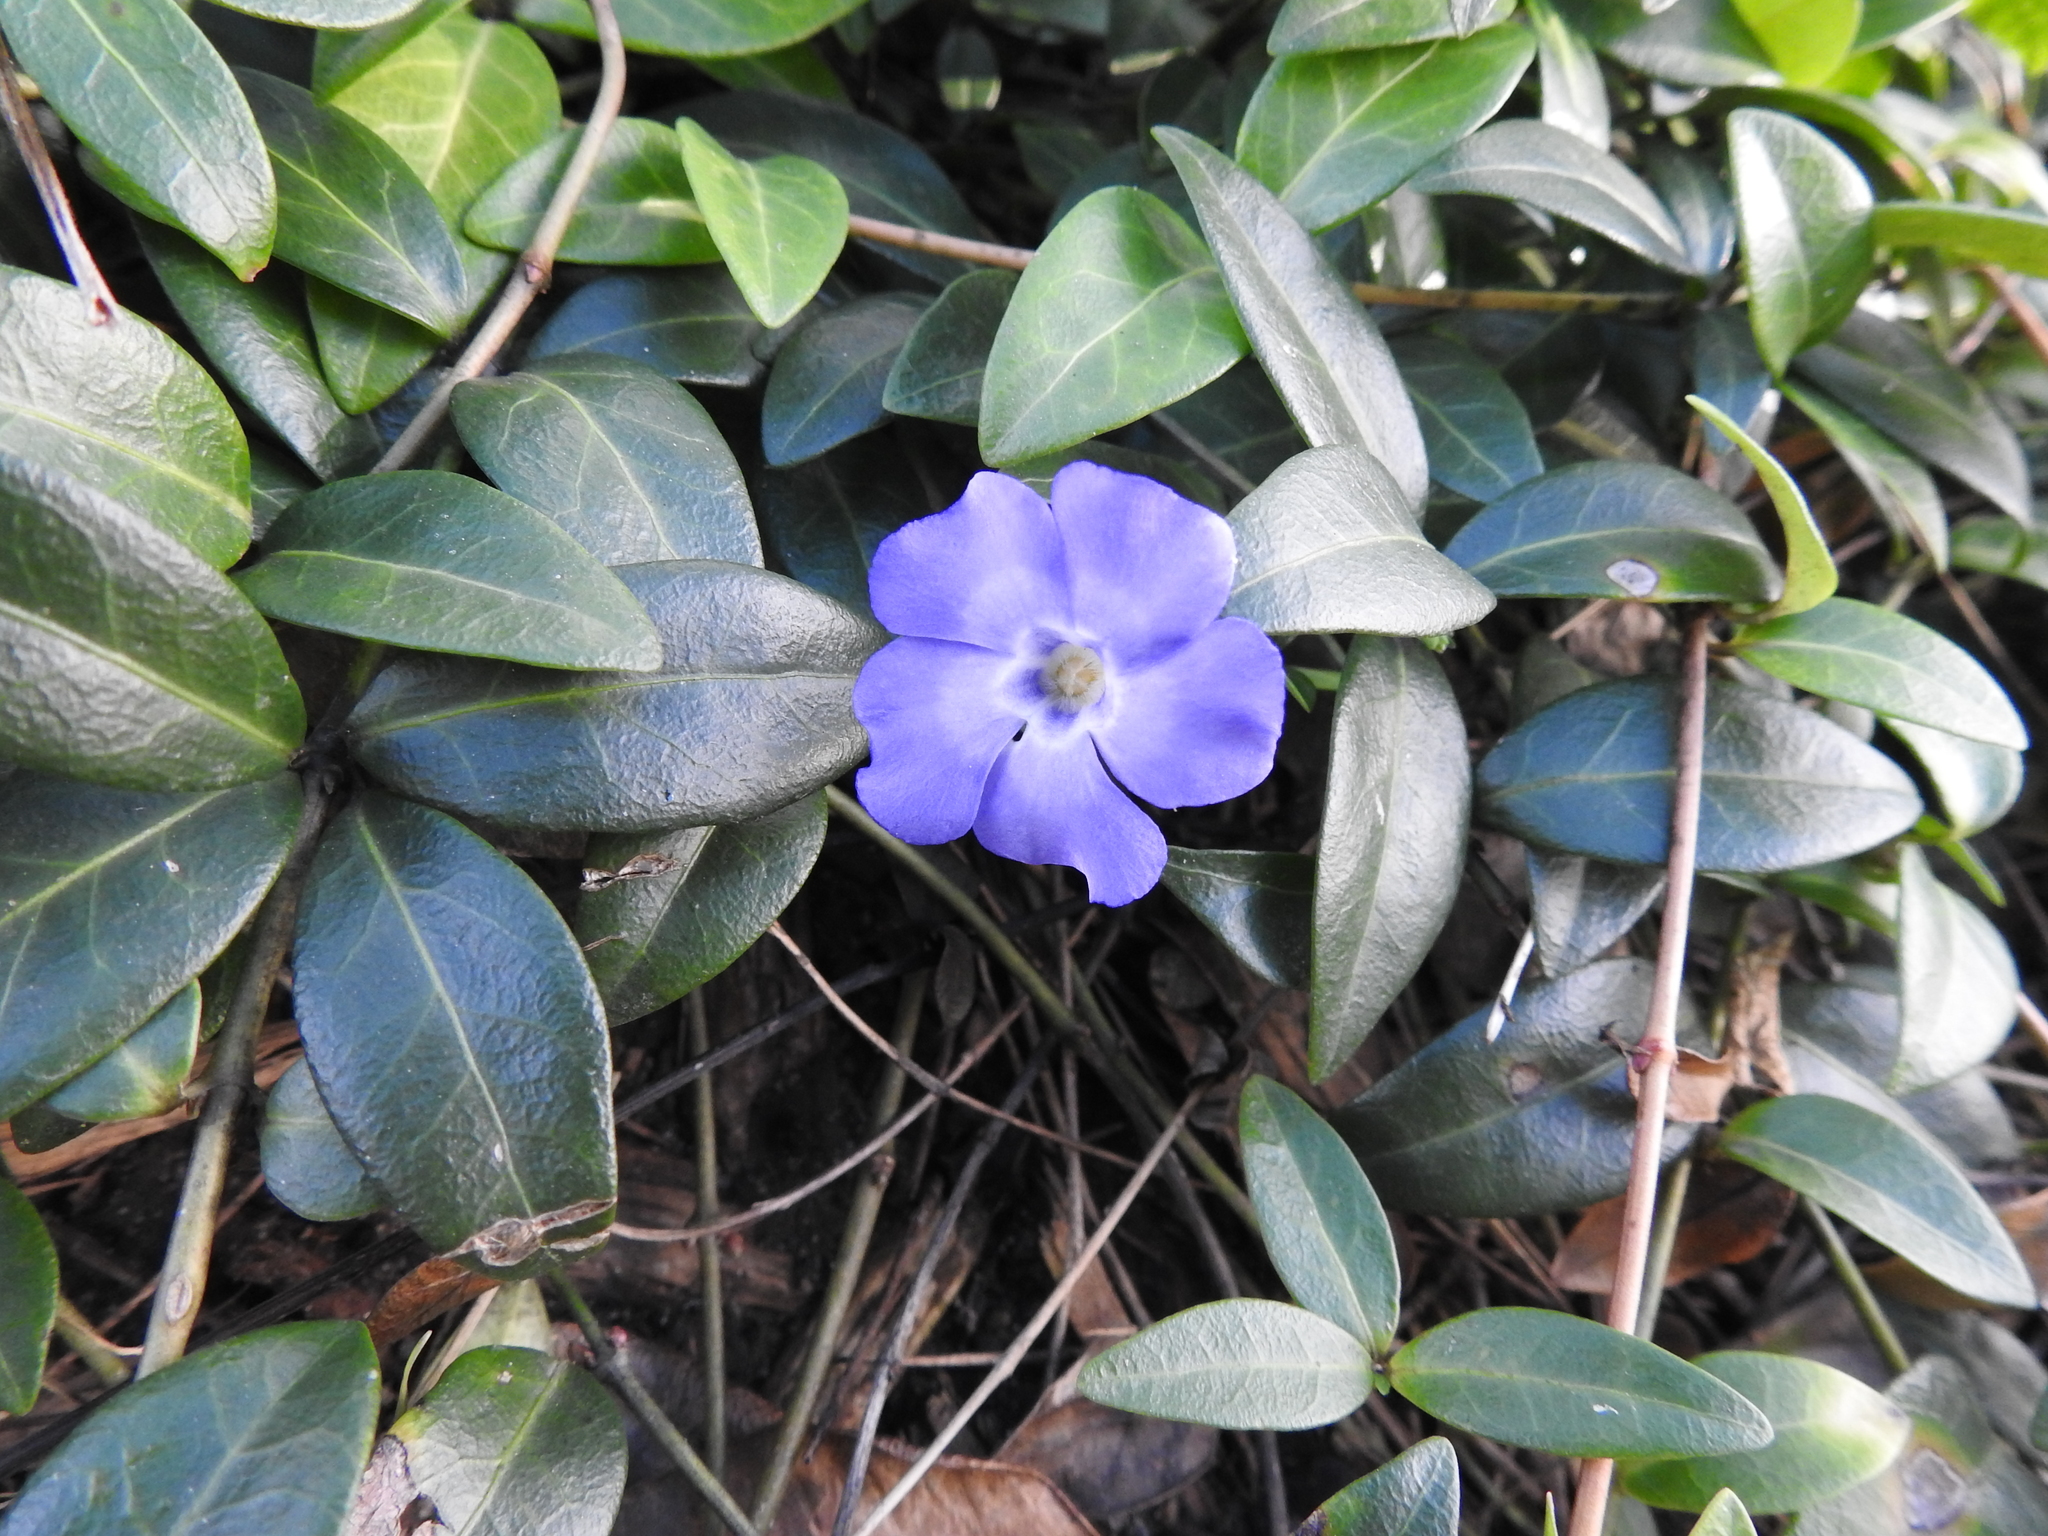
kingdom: Plantae
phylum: Tracheophyta
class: Magnoliopsida
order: Gentianales
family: Apocynaceae
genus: Vinca
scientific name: Vinca minor
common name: Lesser periwinkle
